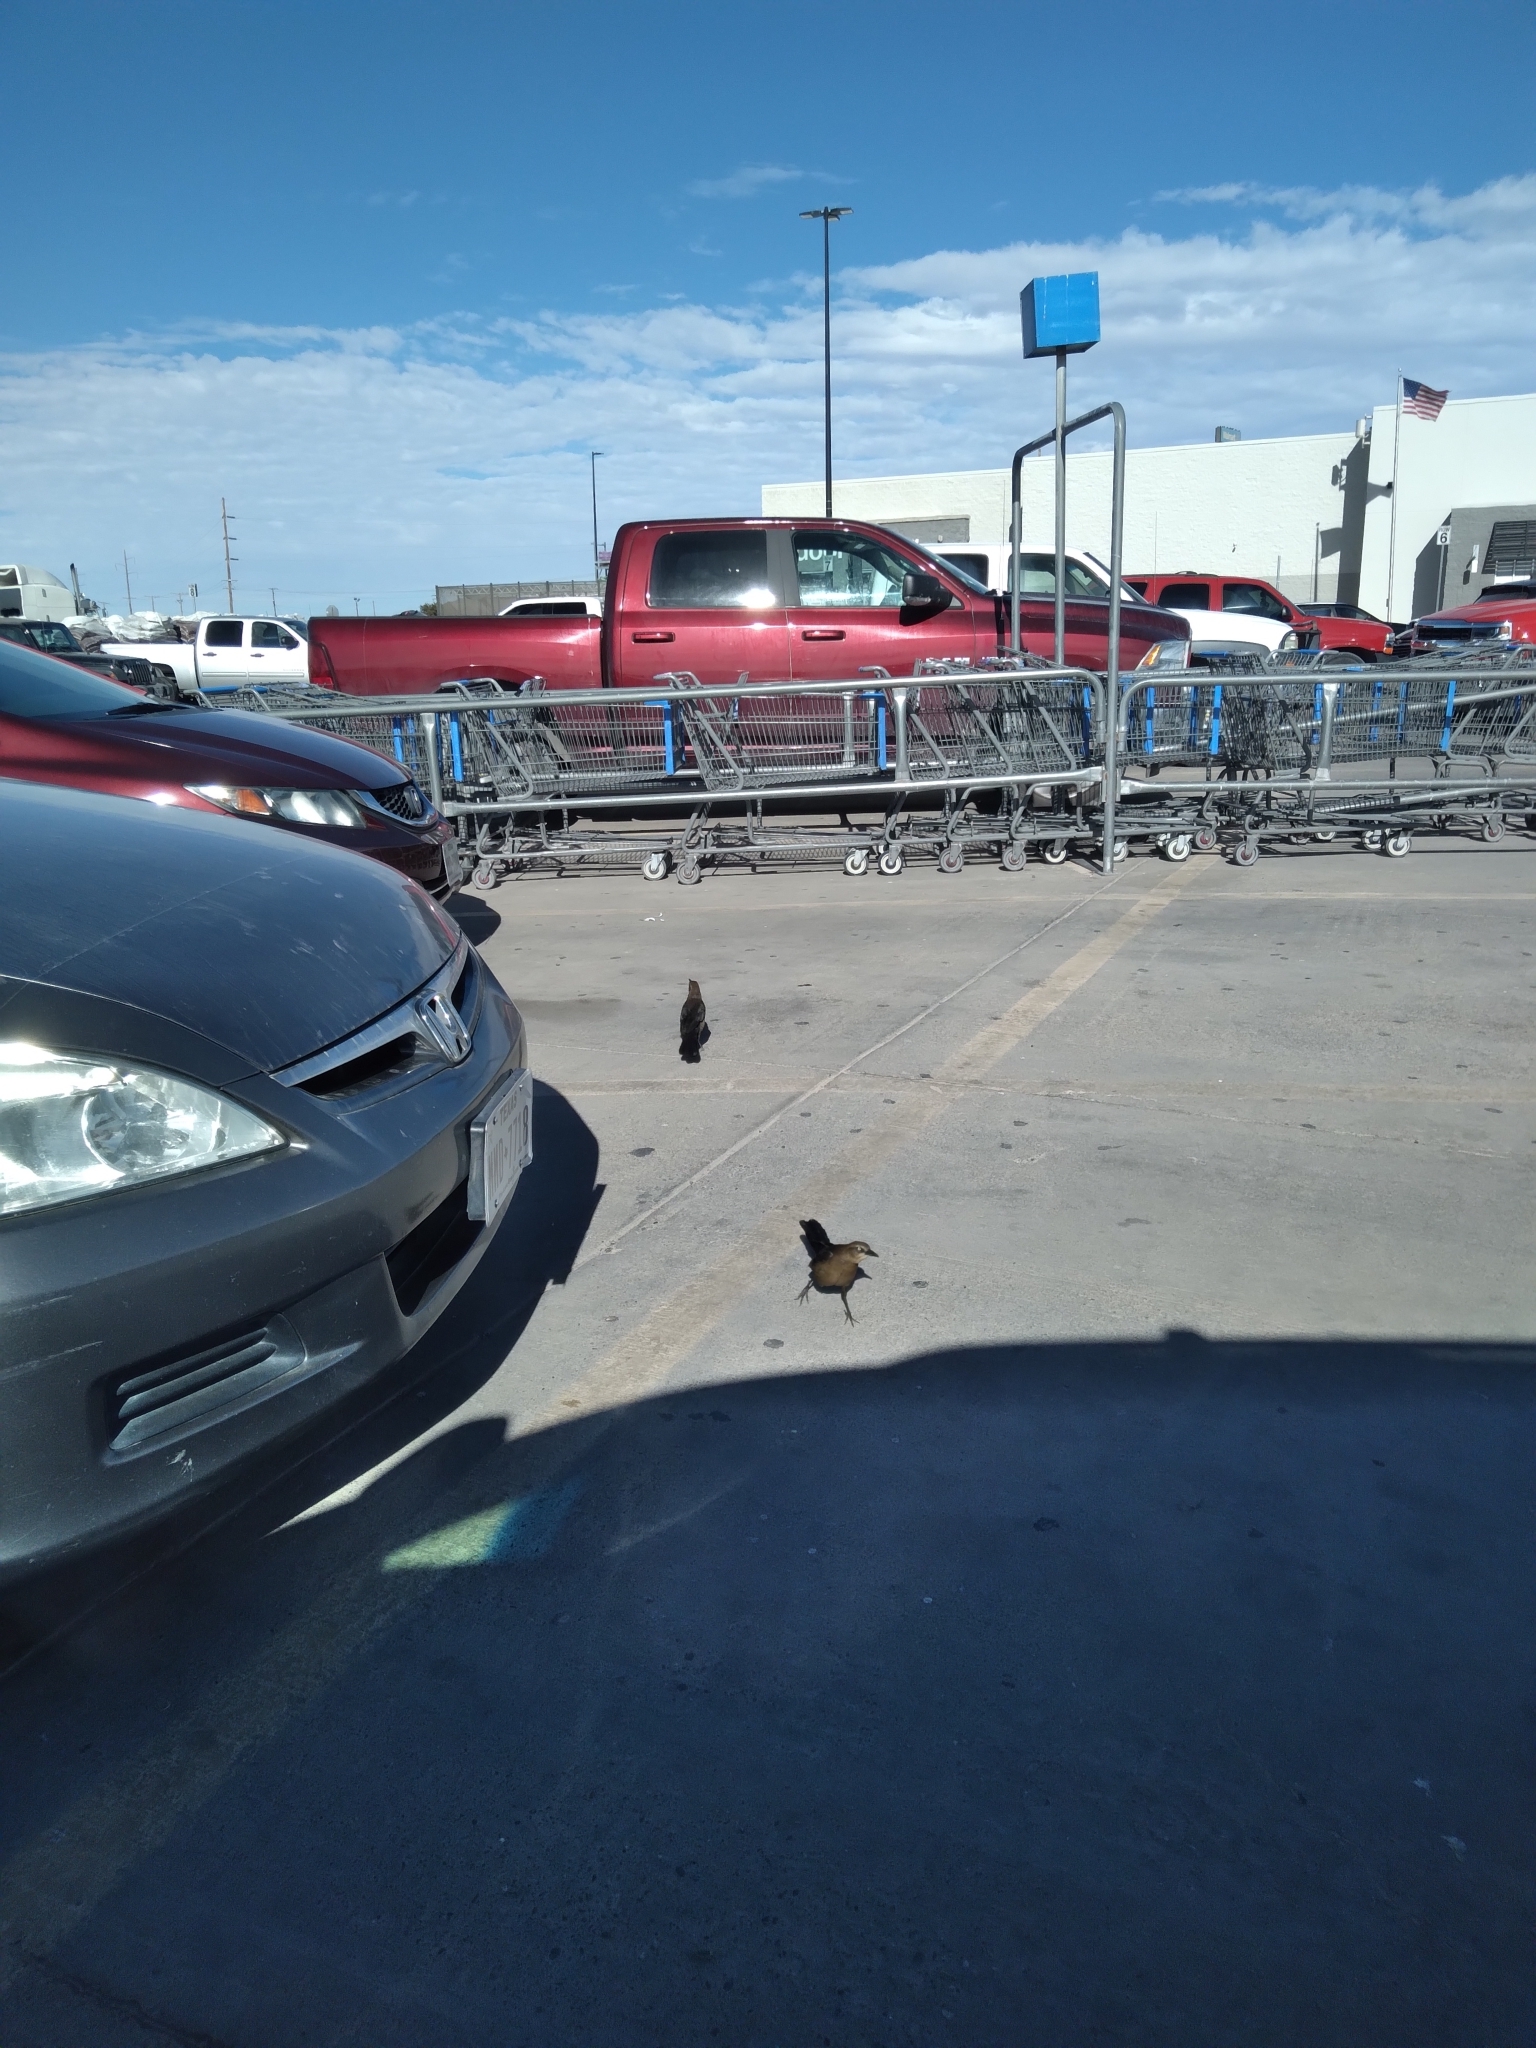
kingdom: Animalia
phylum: Chordata
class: Aves
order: Passeriformes
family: Icteridae
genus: Quiscalus
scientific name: Quiscalus mexicanus
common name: Great-tailed grackle
